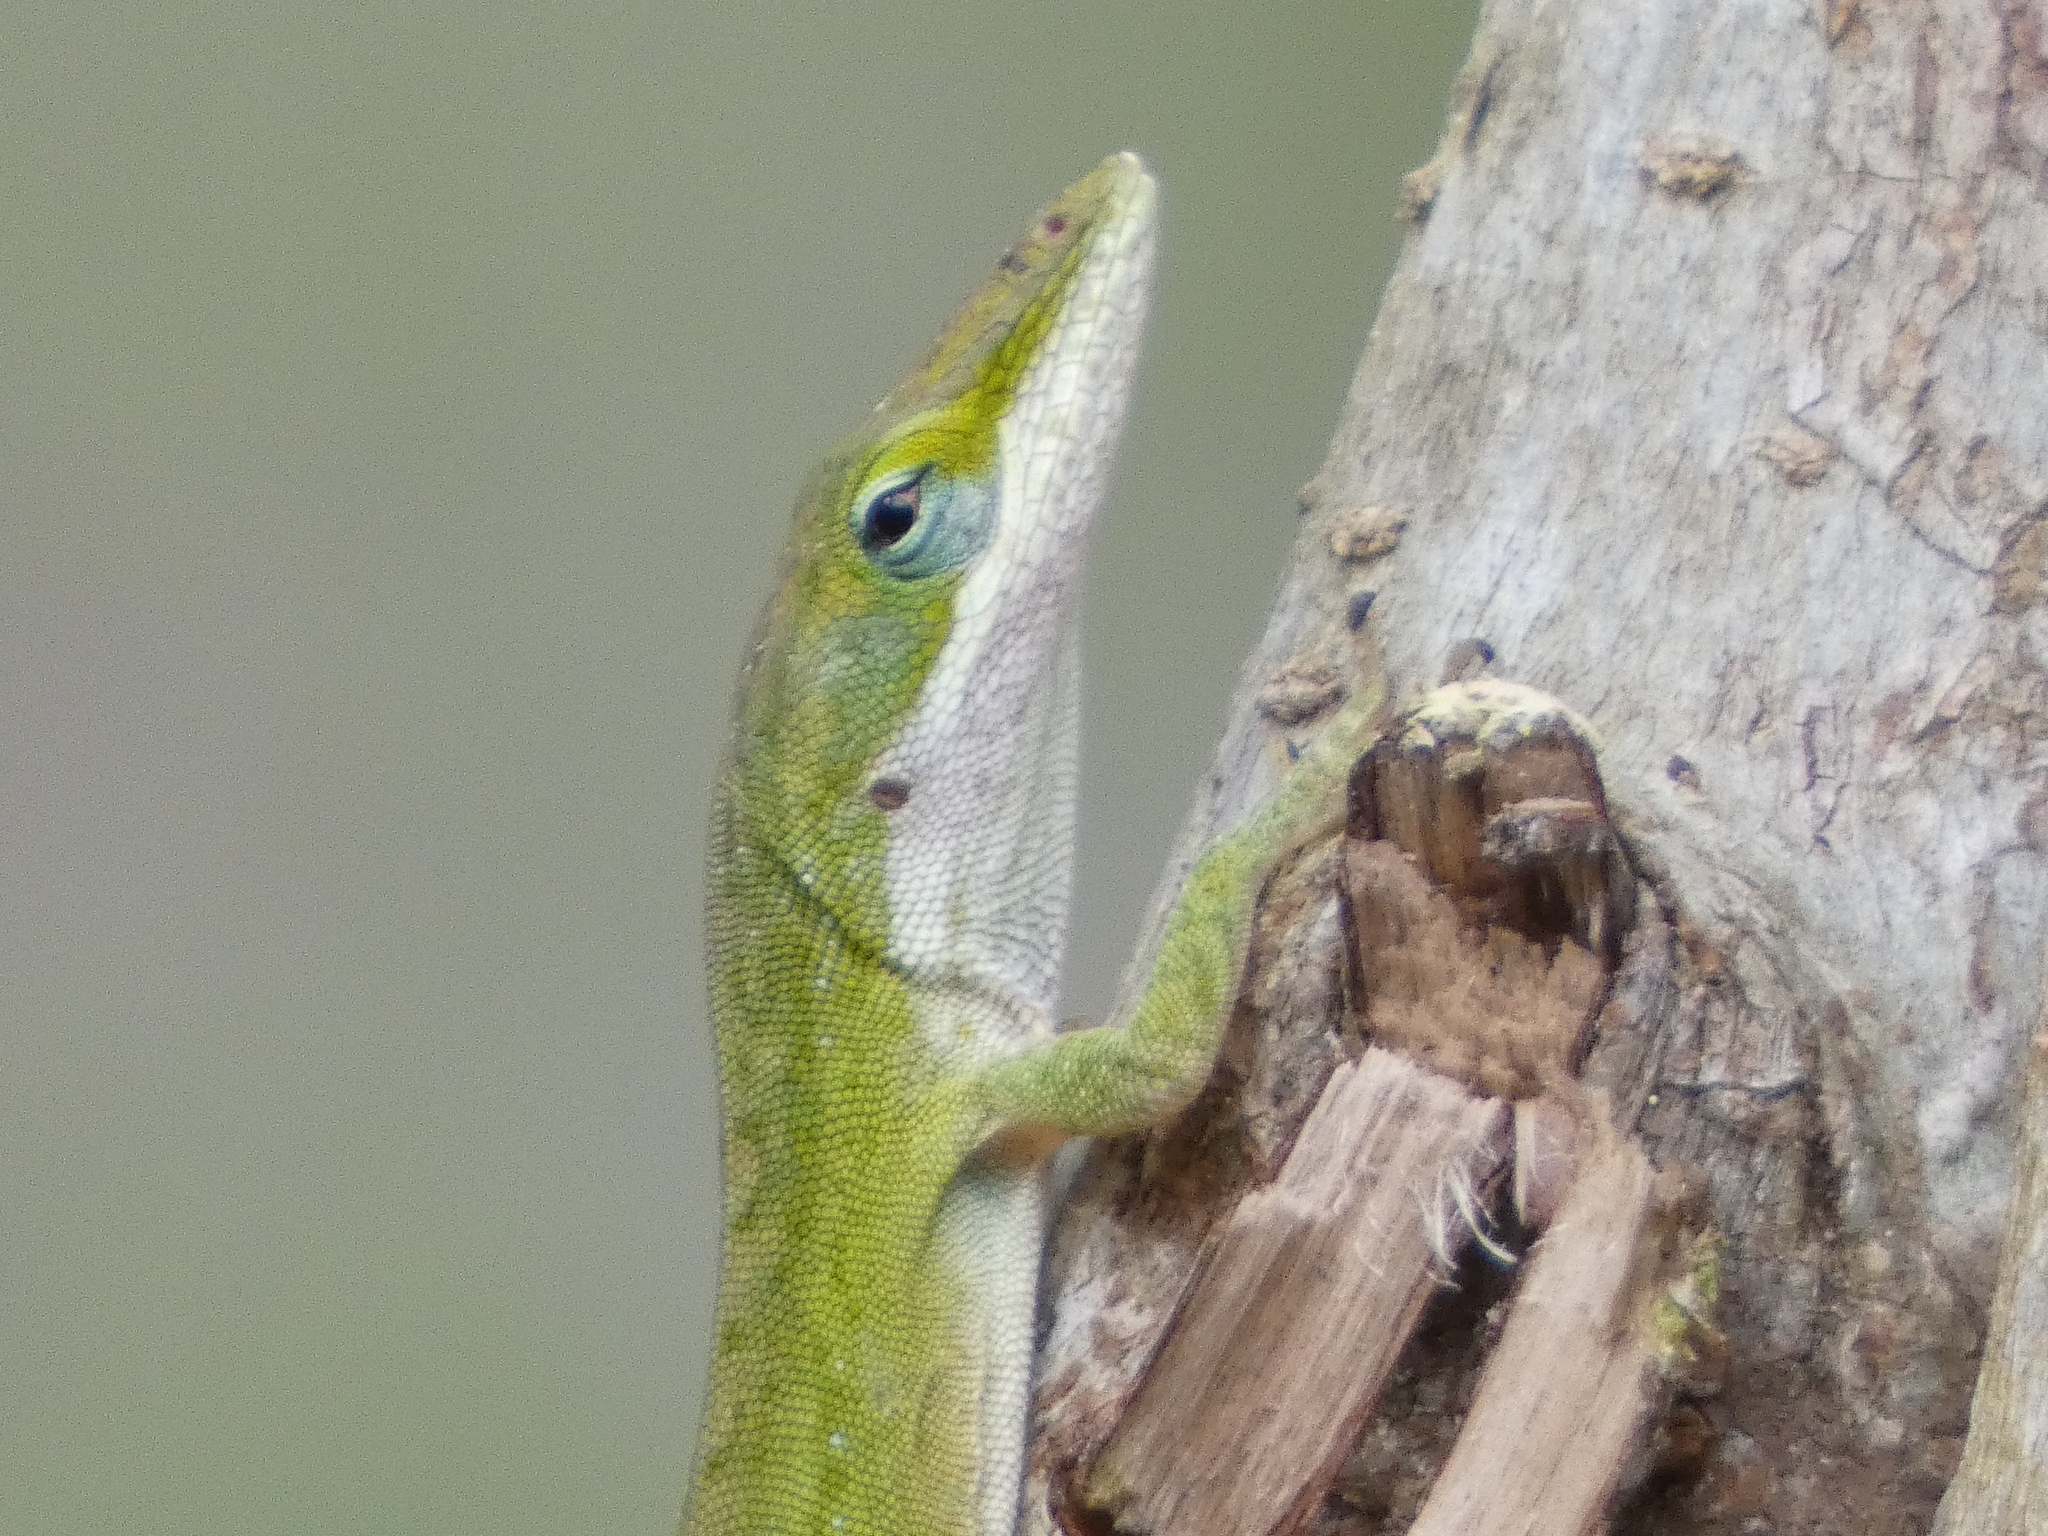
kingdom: Animalia
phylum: Chordata
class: Squamata
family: Dactyloidae
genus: Anolis
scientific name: Anolis carolinensis
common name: Green anole
